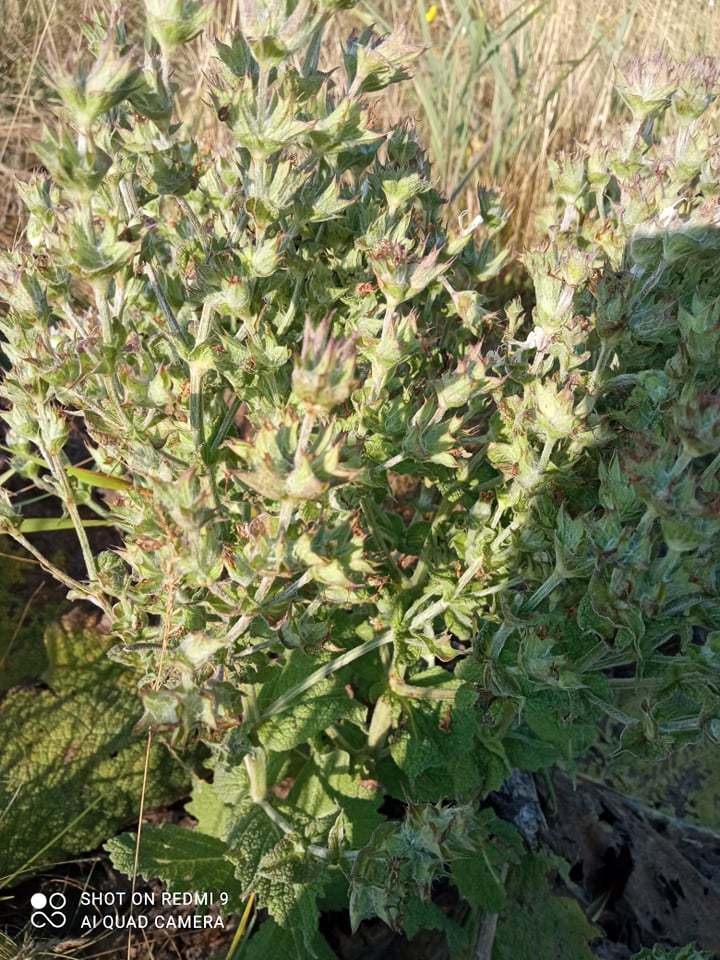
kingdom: Plantae
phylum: Tracheophyta
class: Magnoliopsida
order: Lamiales
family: Lamiaceae
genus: Salvia
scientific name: Salvia aethiopis
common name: Mediterranean sage
